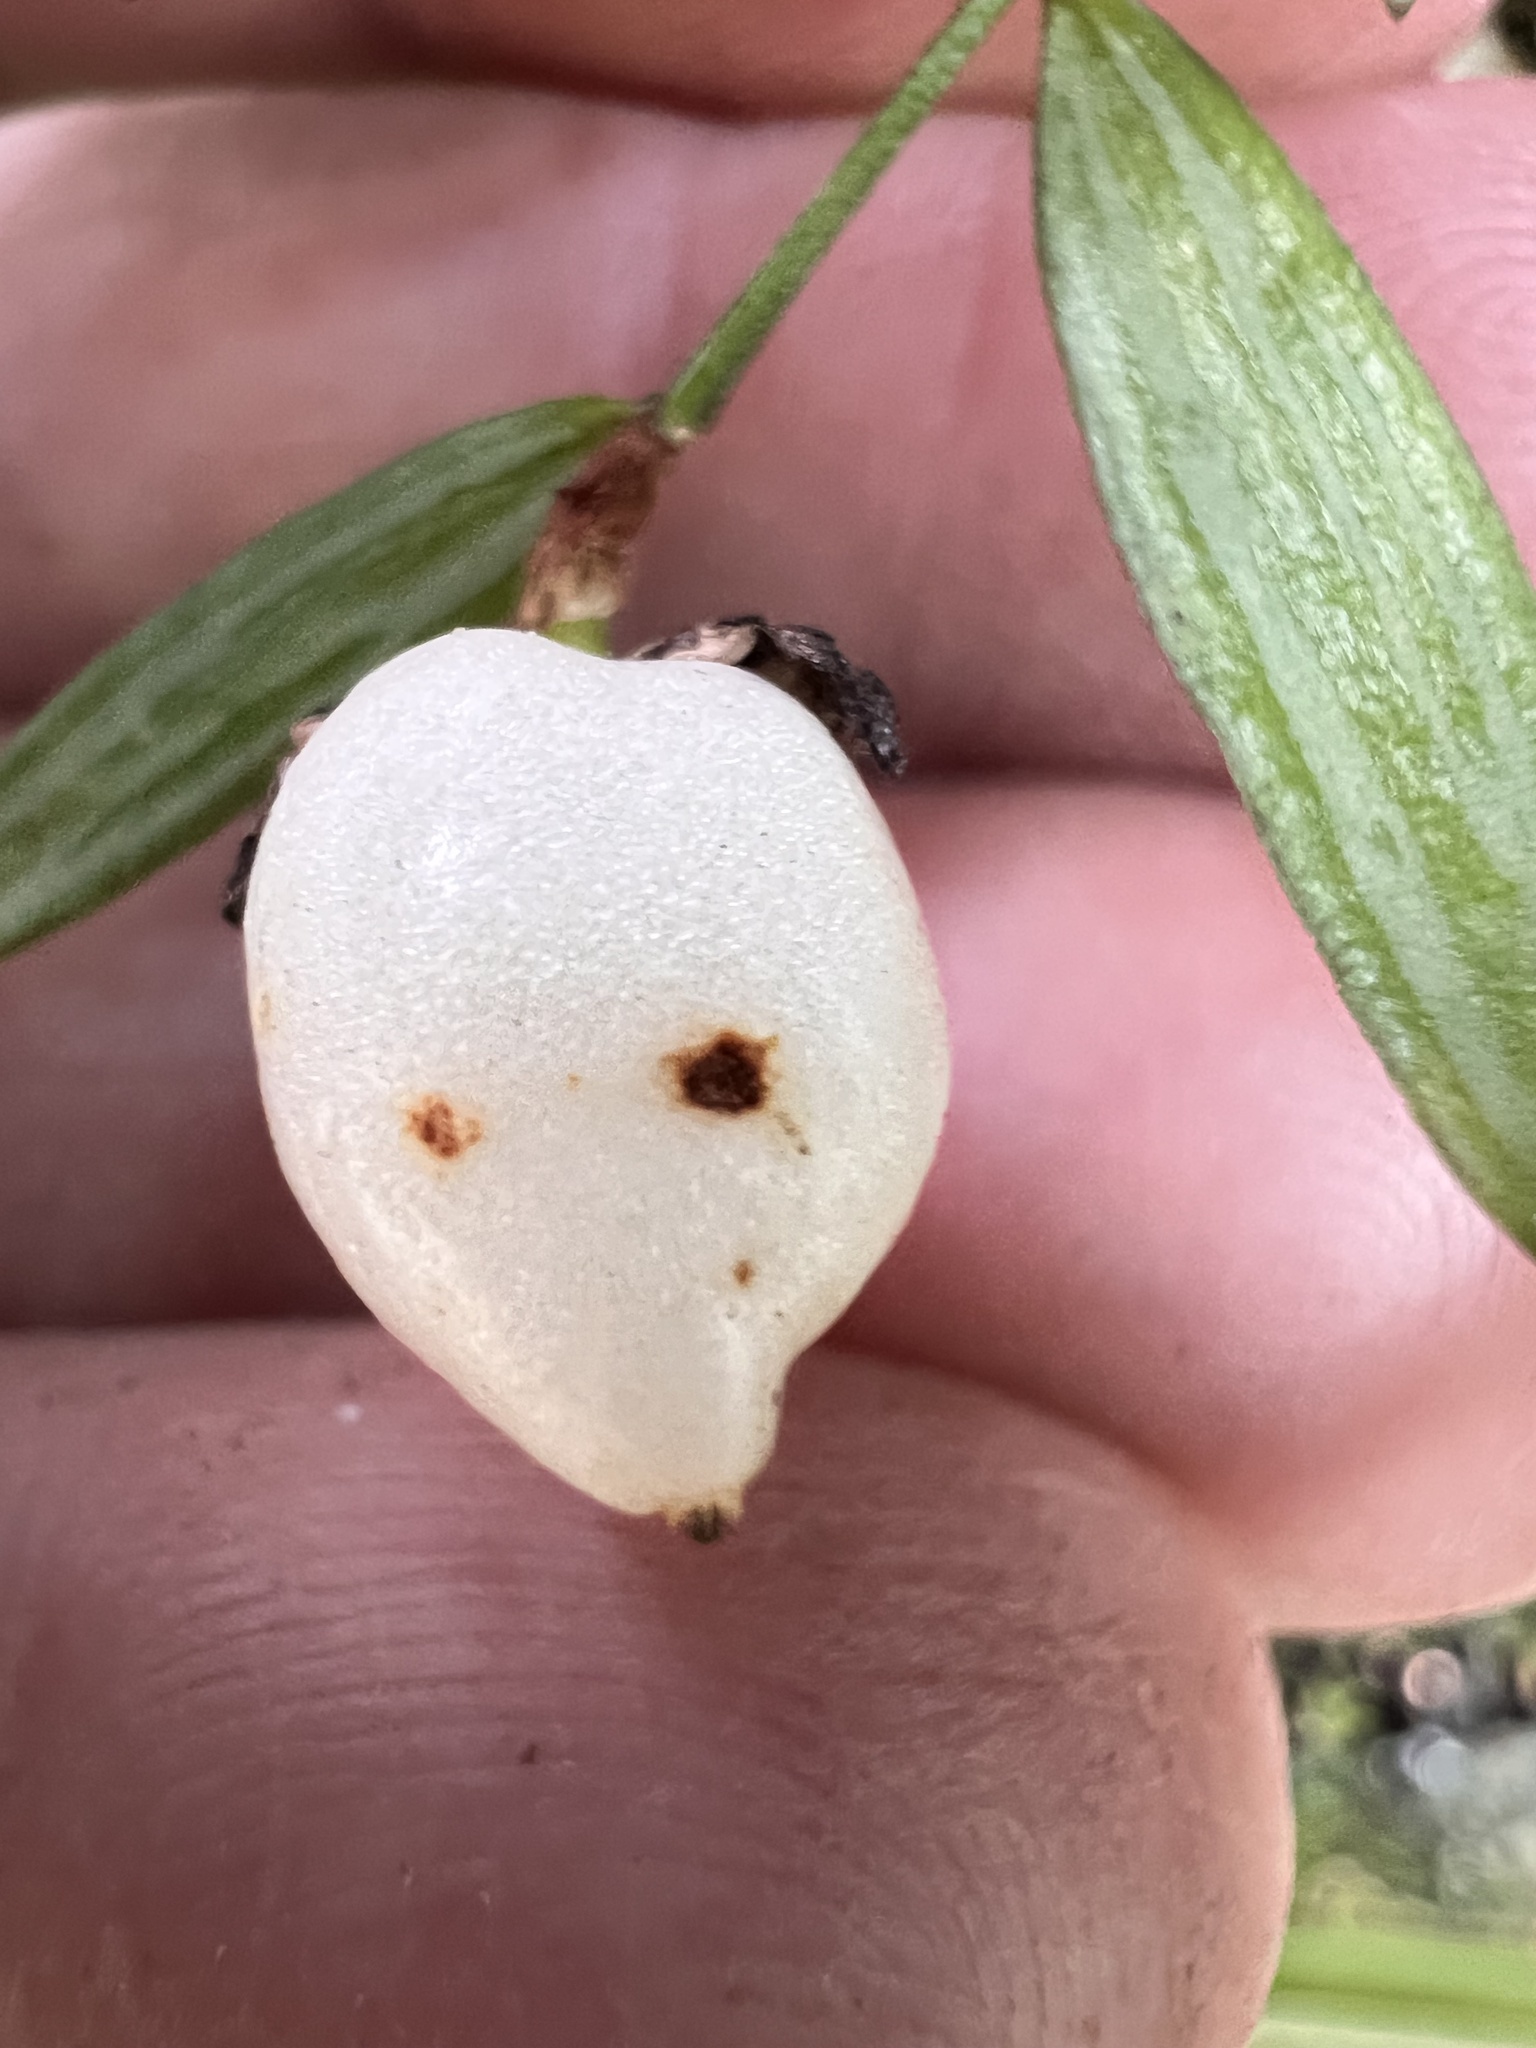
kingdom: Plantae
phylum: Tracheophyta
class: Liliopsida
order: Liliales
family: Alstroemeriaceae
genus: Luzuriaga
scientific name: Luzuriaga parviflora
